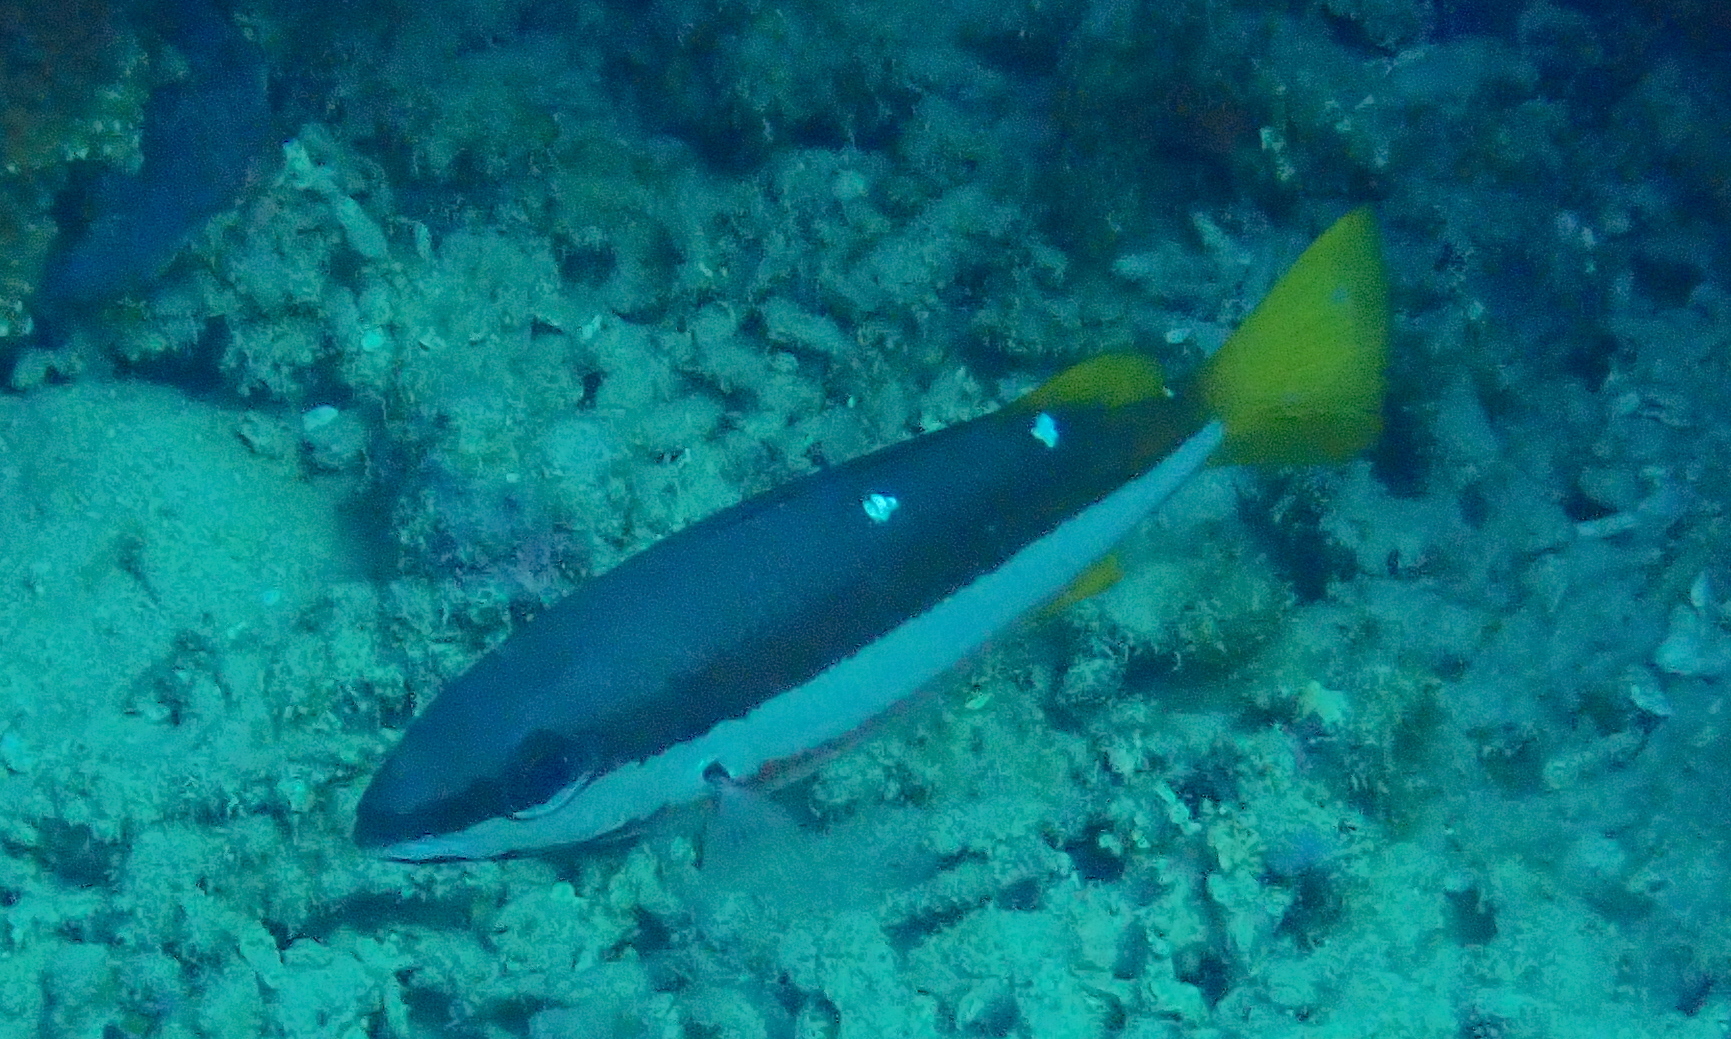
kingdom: Animalia
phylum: Chordata
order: Perciformes
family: Lutjanidae
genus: Lutjanus
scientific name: Lutjanus biguttatus
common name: Two-spot snapper
